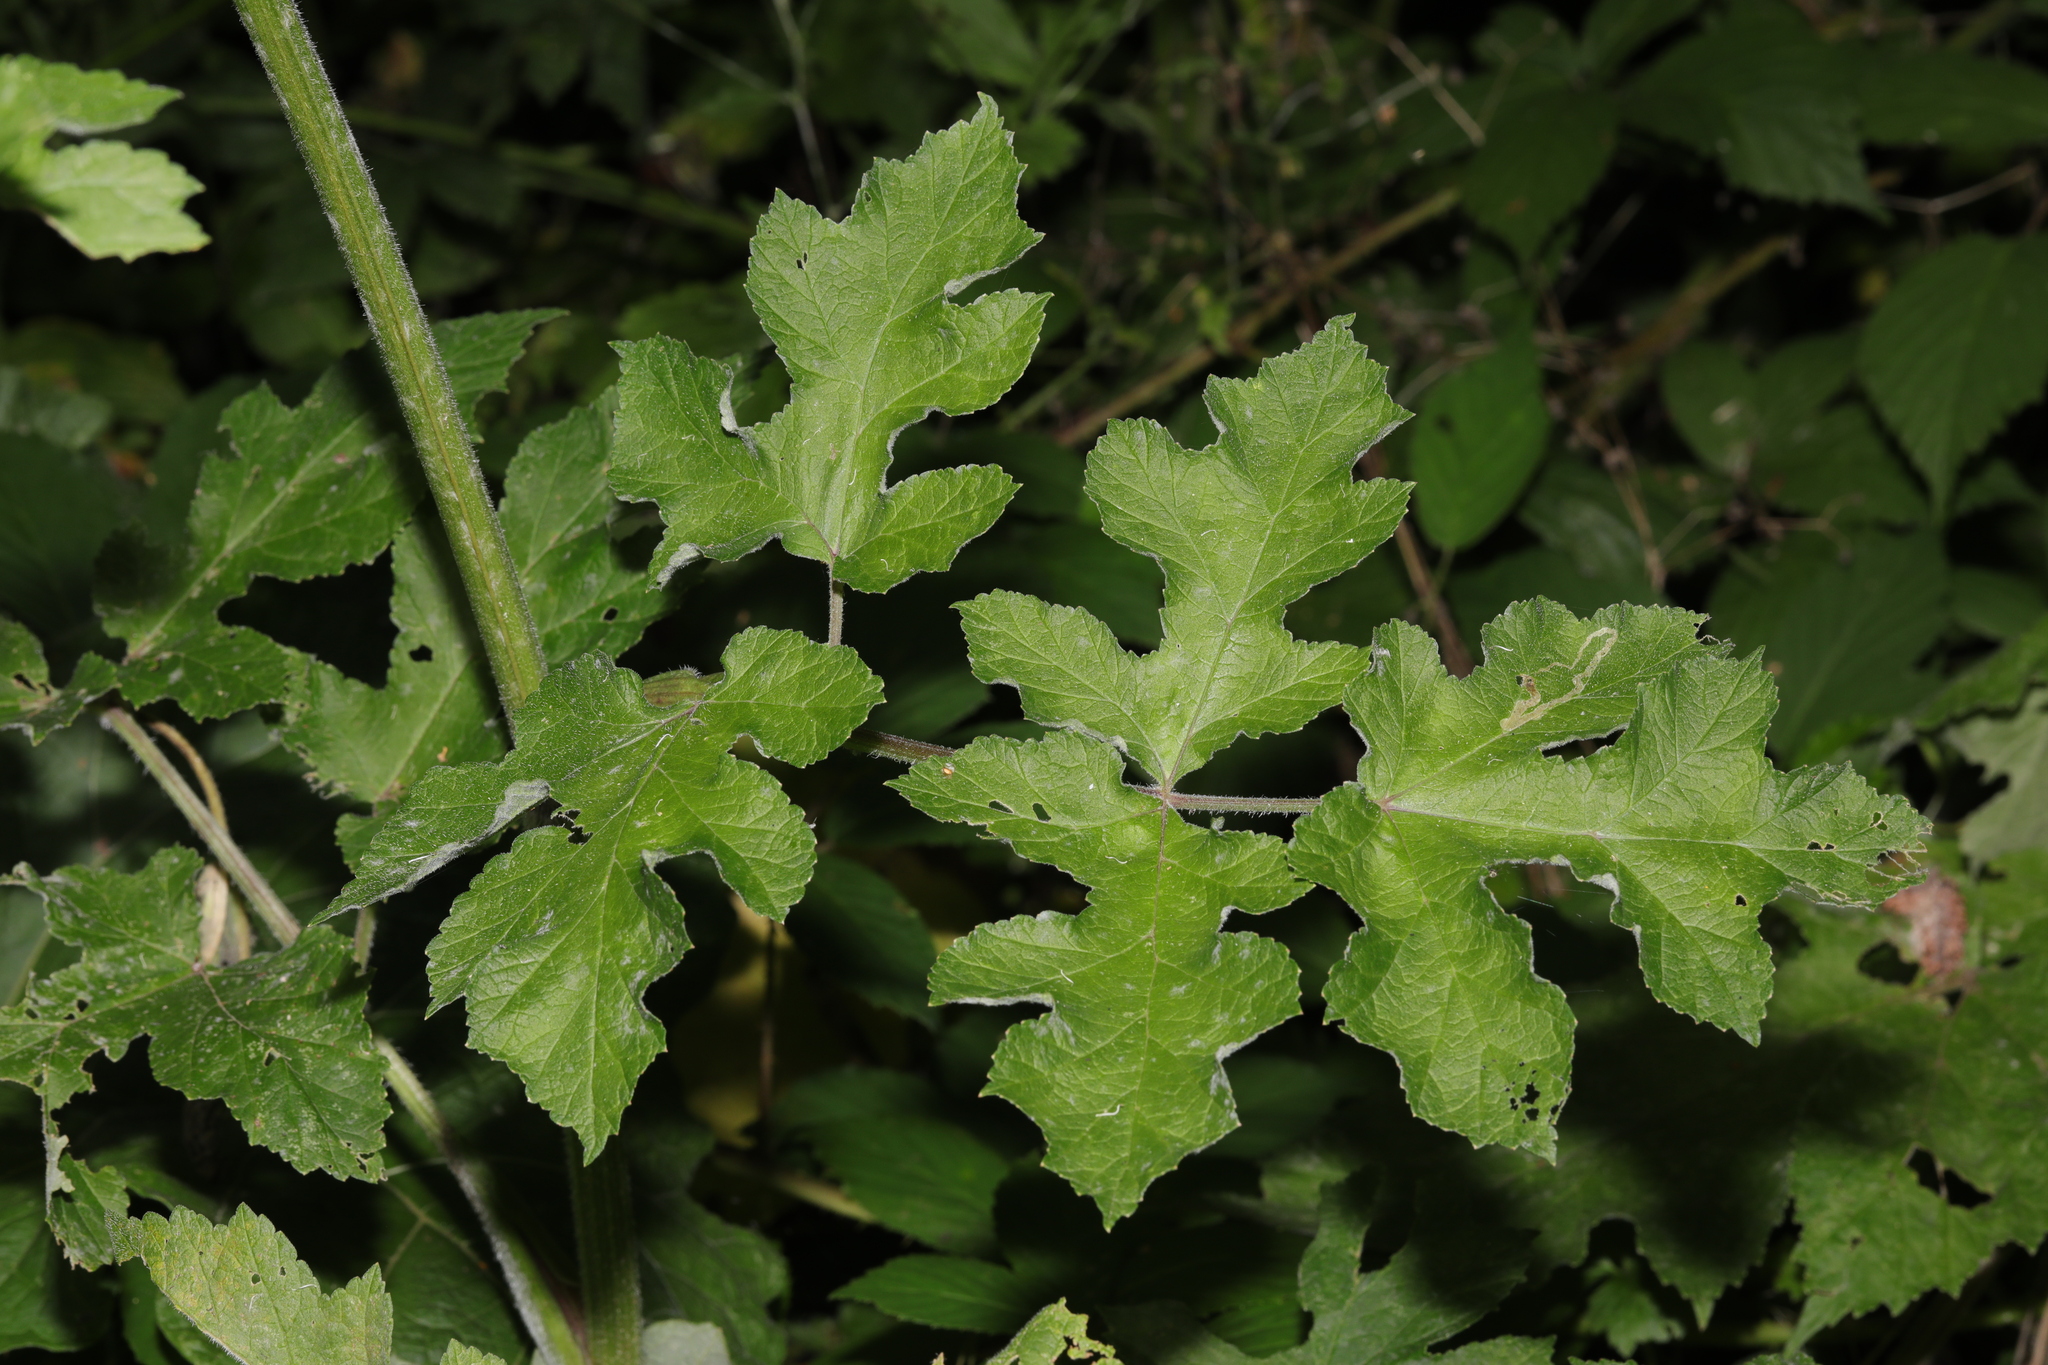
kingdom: Plantae
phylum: Tracheophyta
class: Magnoliopsida
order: Apiales
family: Apiaceae
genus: Heracleum
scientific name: Heracleum sphondylium
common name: Hogweed
